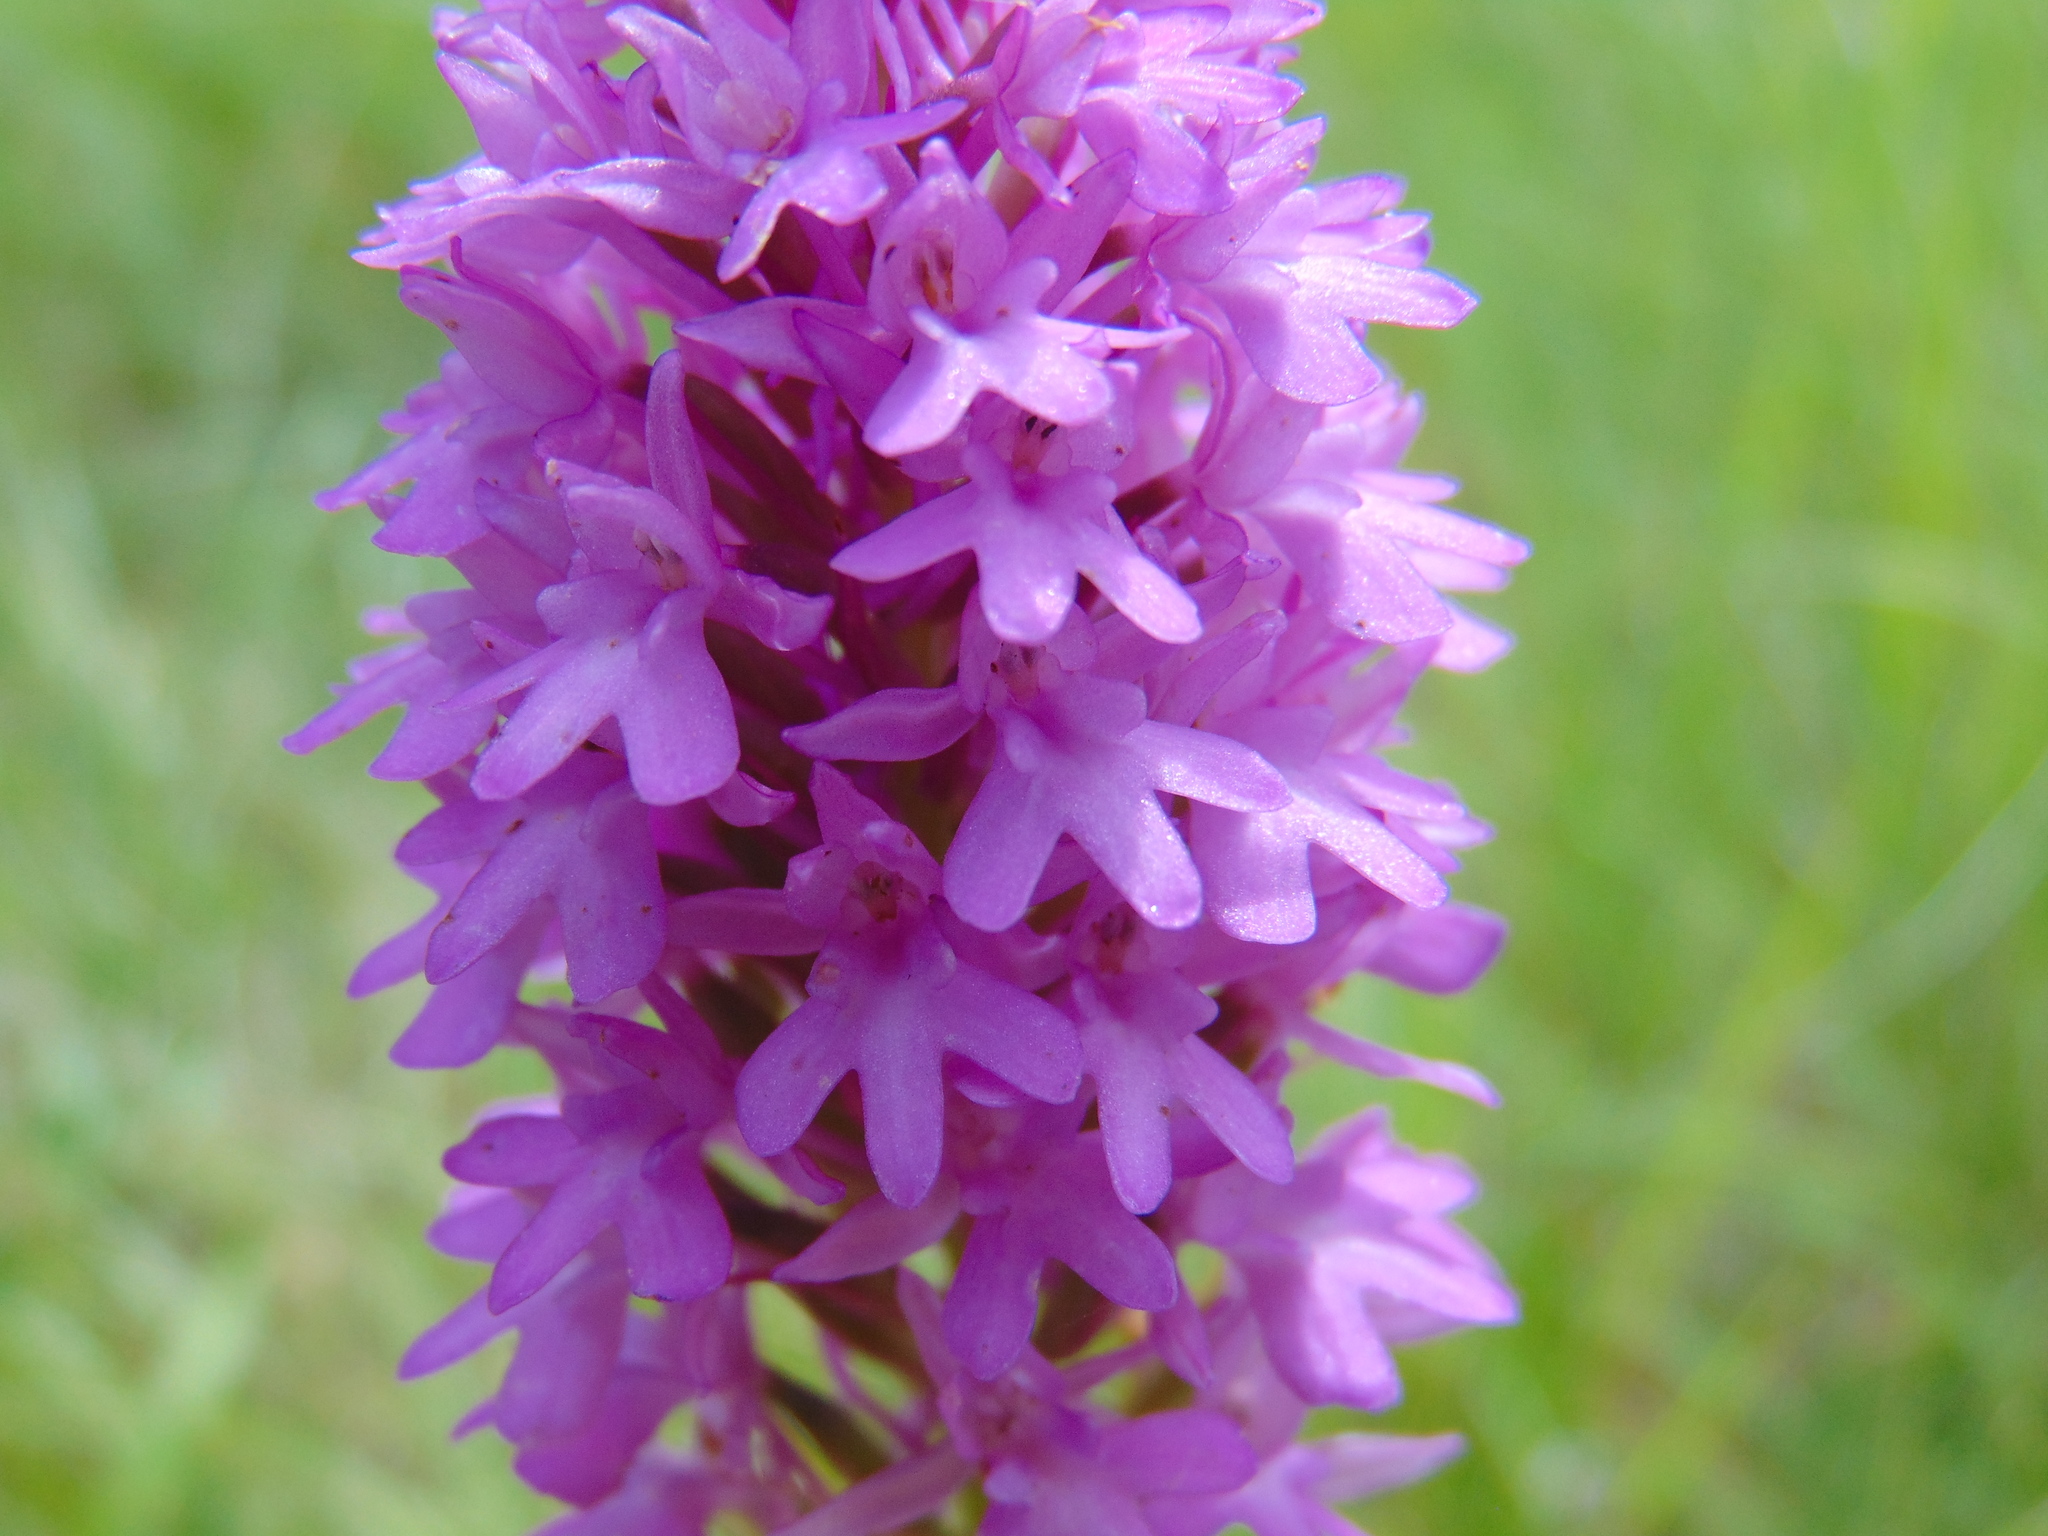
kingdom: Plantae
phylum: Tracheophyta
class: Liliopsida
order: Asparagales
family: Orchidaceae
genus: Anacamptis
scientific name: Anacamptis pyramidalis
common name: Pyramidal orchid
